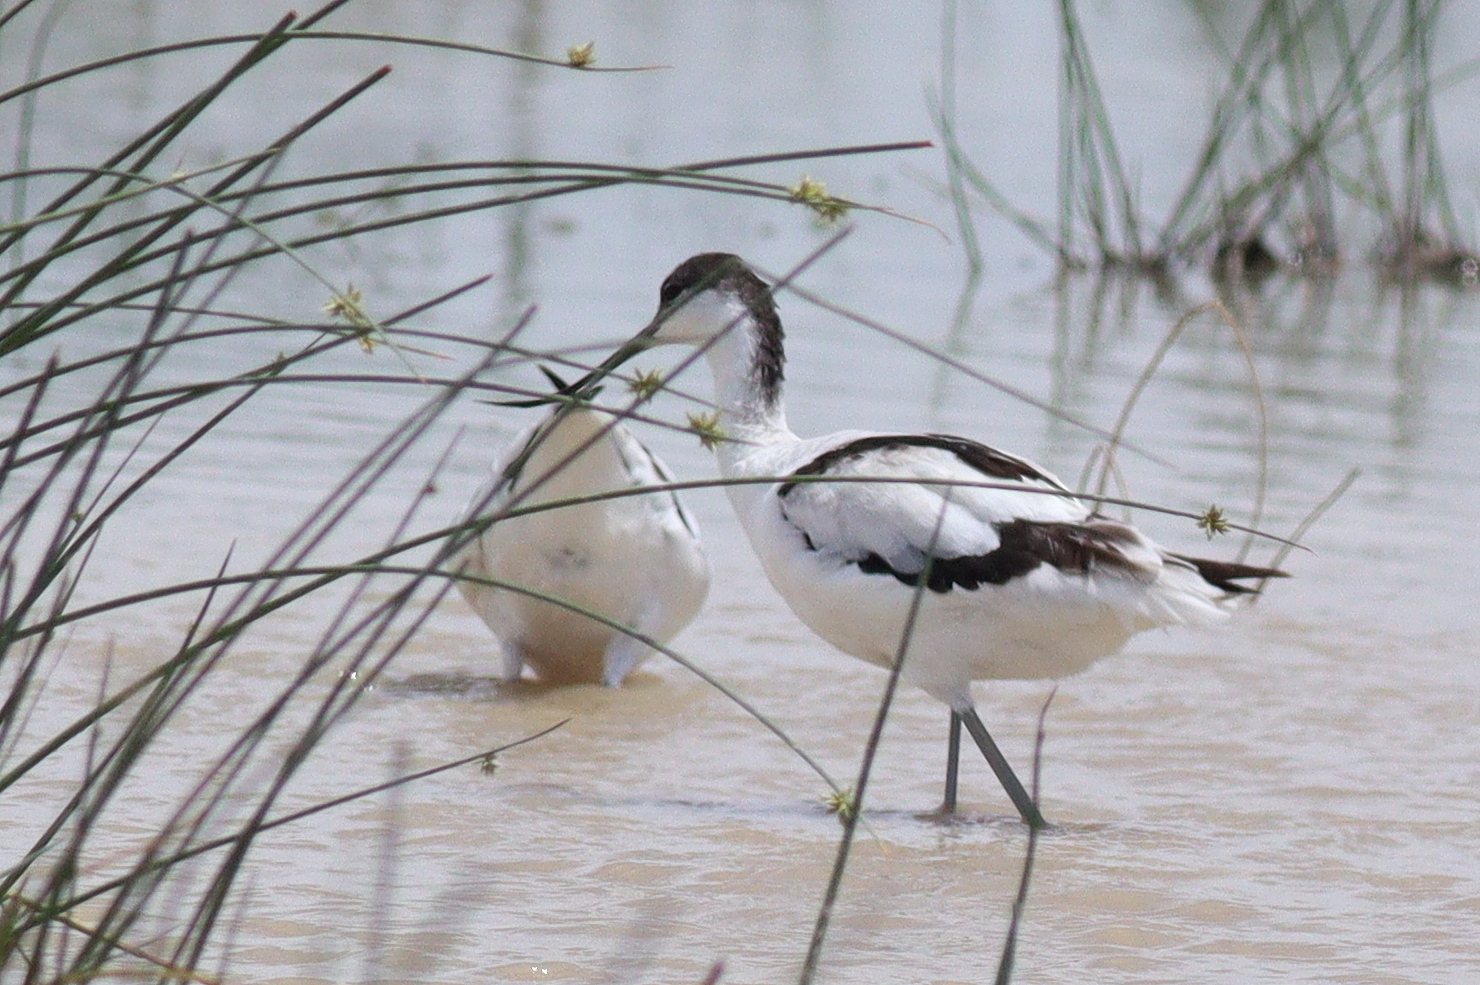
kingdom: Animalia
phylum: Chordata
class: Aves
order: Charadriiformes
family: Recurvirostridae
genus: Recurvirostra
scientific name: Recurvirostra avosetta
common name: Pied avocet
